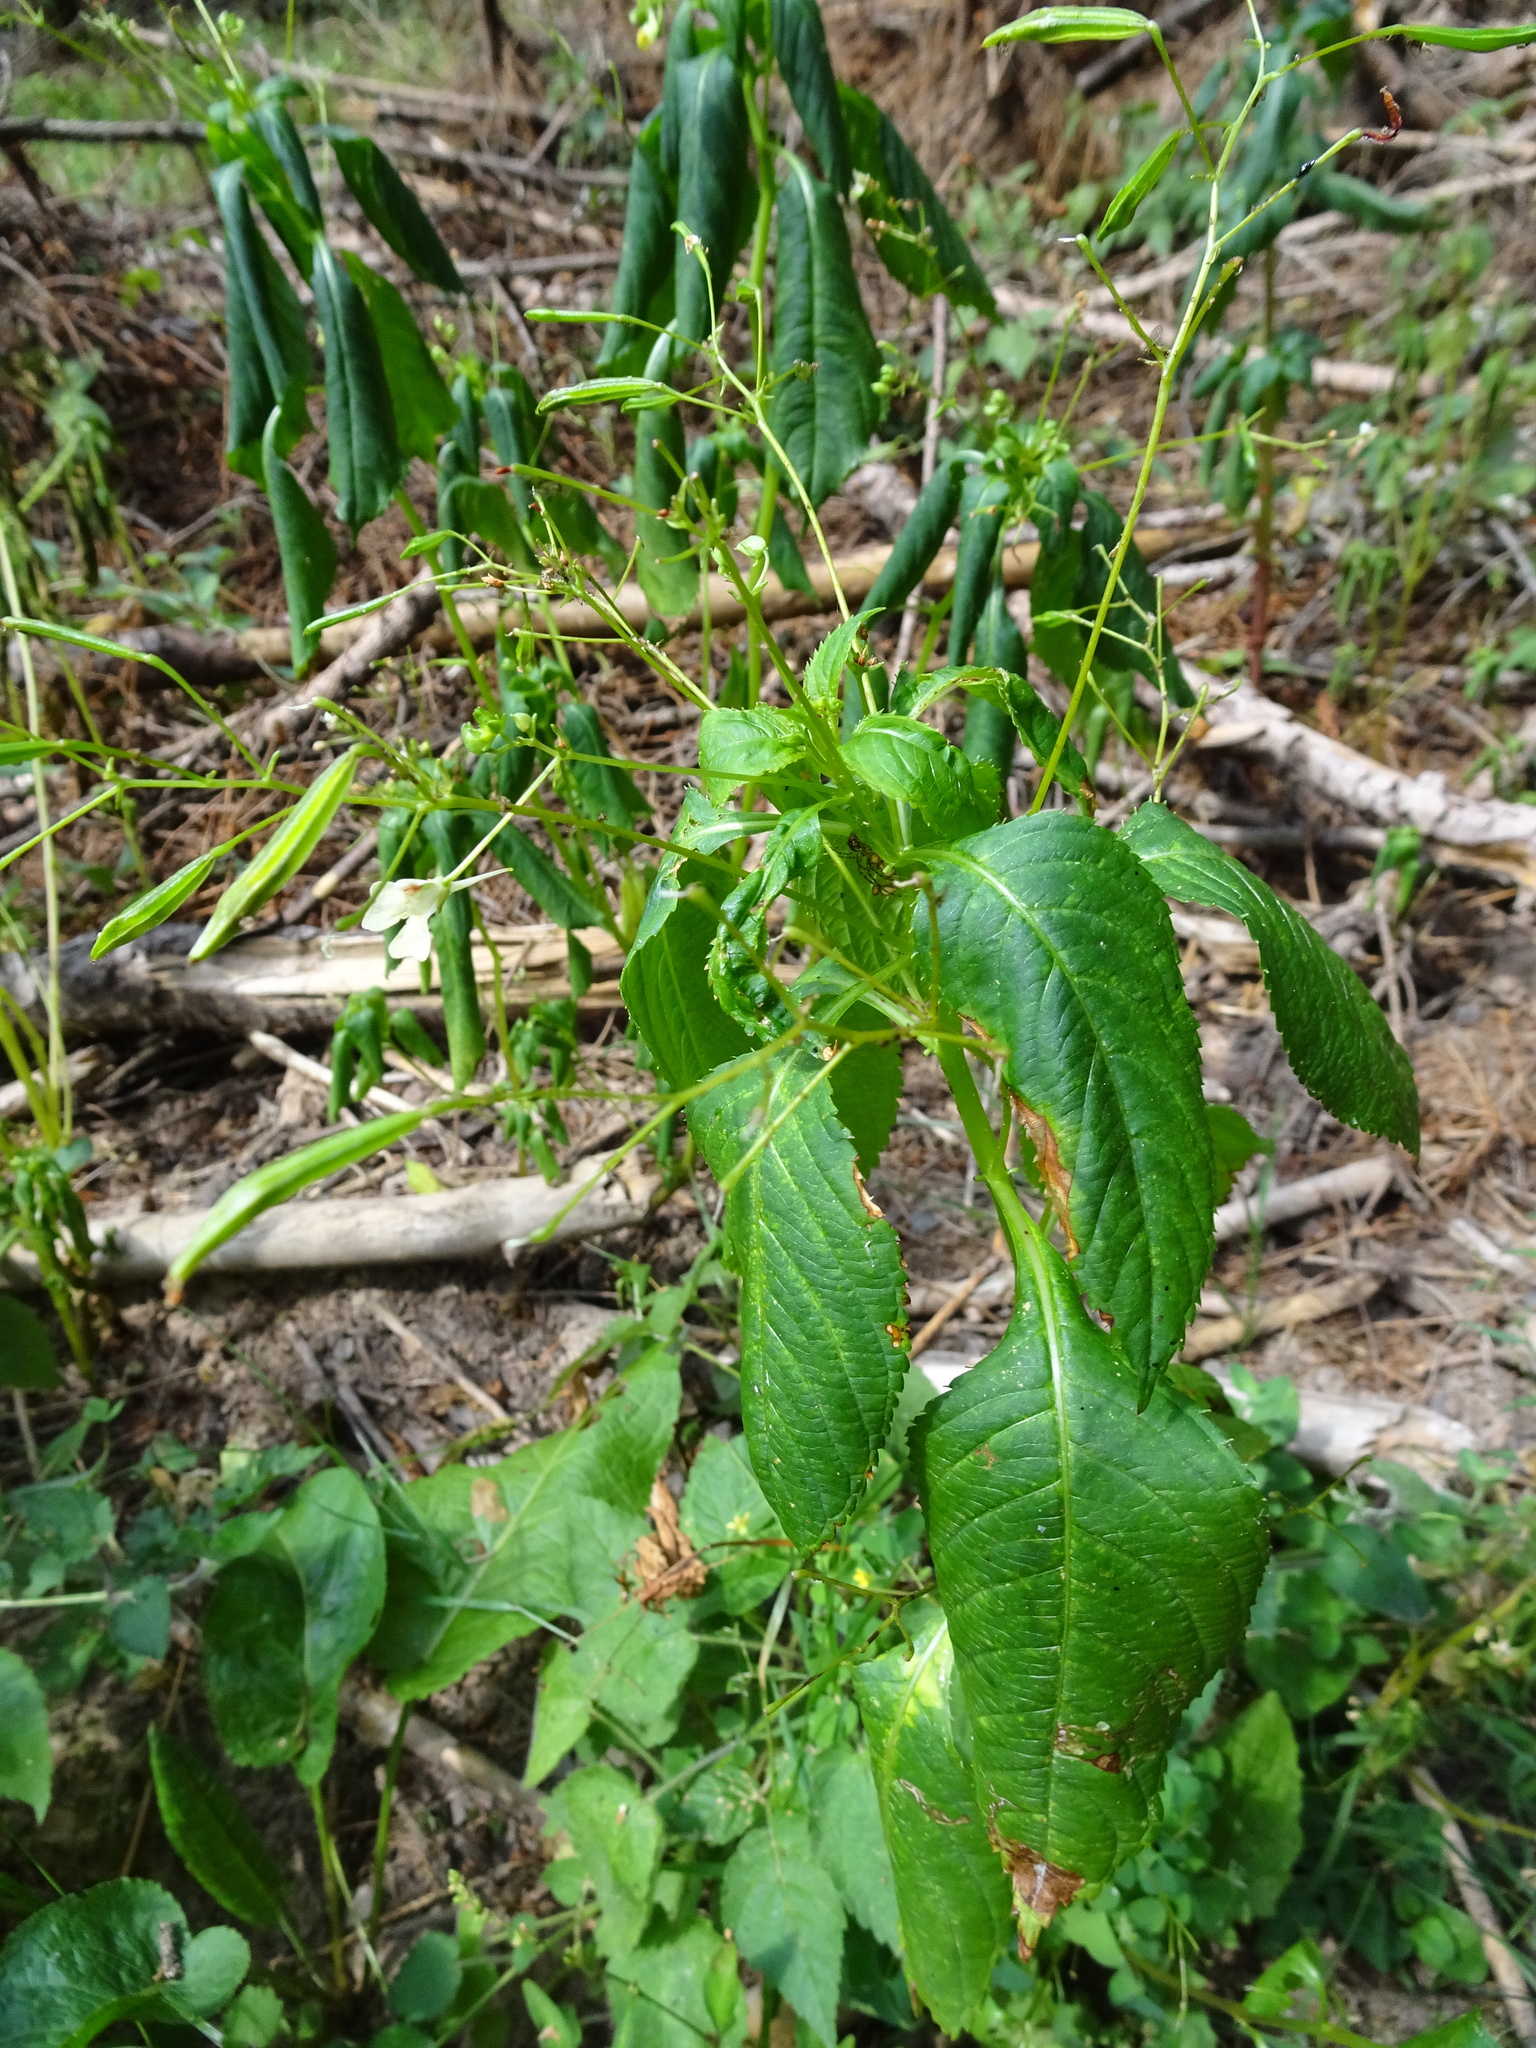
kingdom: Plantae
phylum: Tracheophyta
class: Magnoliopsida
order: Ericales
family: Balsaminaceae
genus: Impatiens
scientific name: Impatiens parviflora
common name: Small balsam
